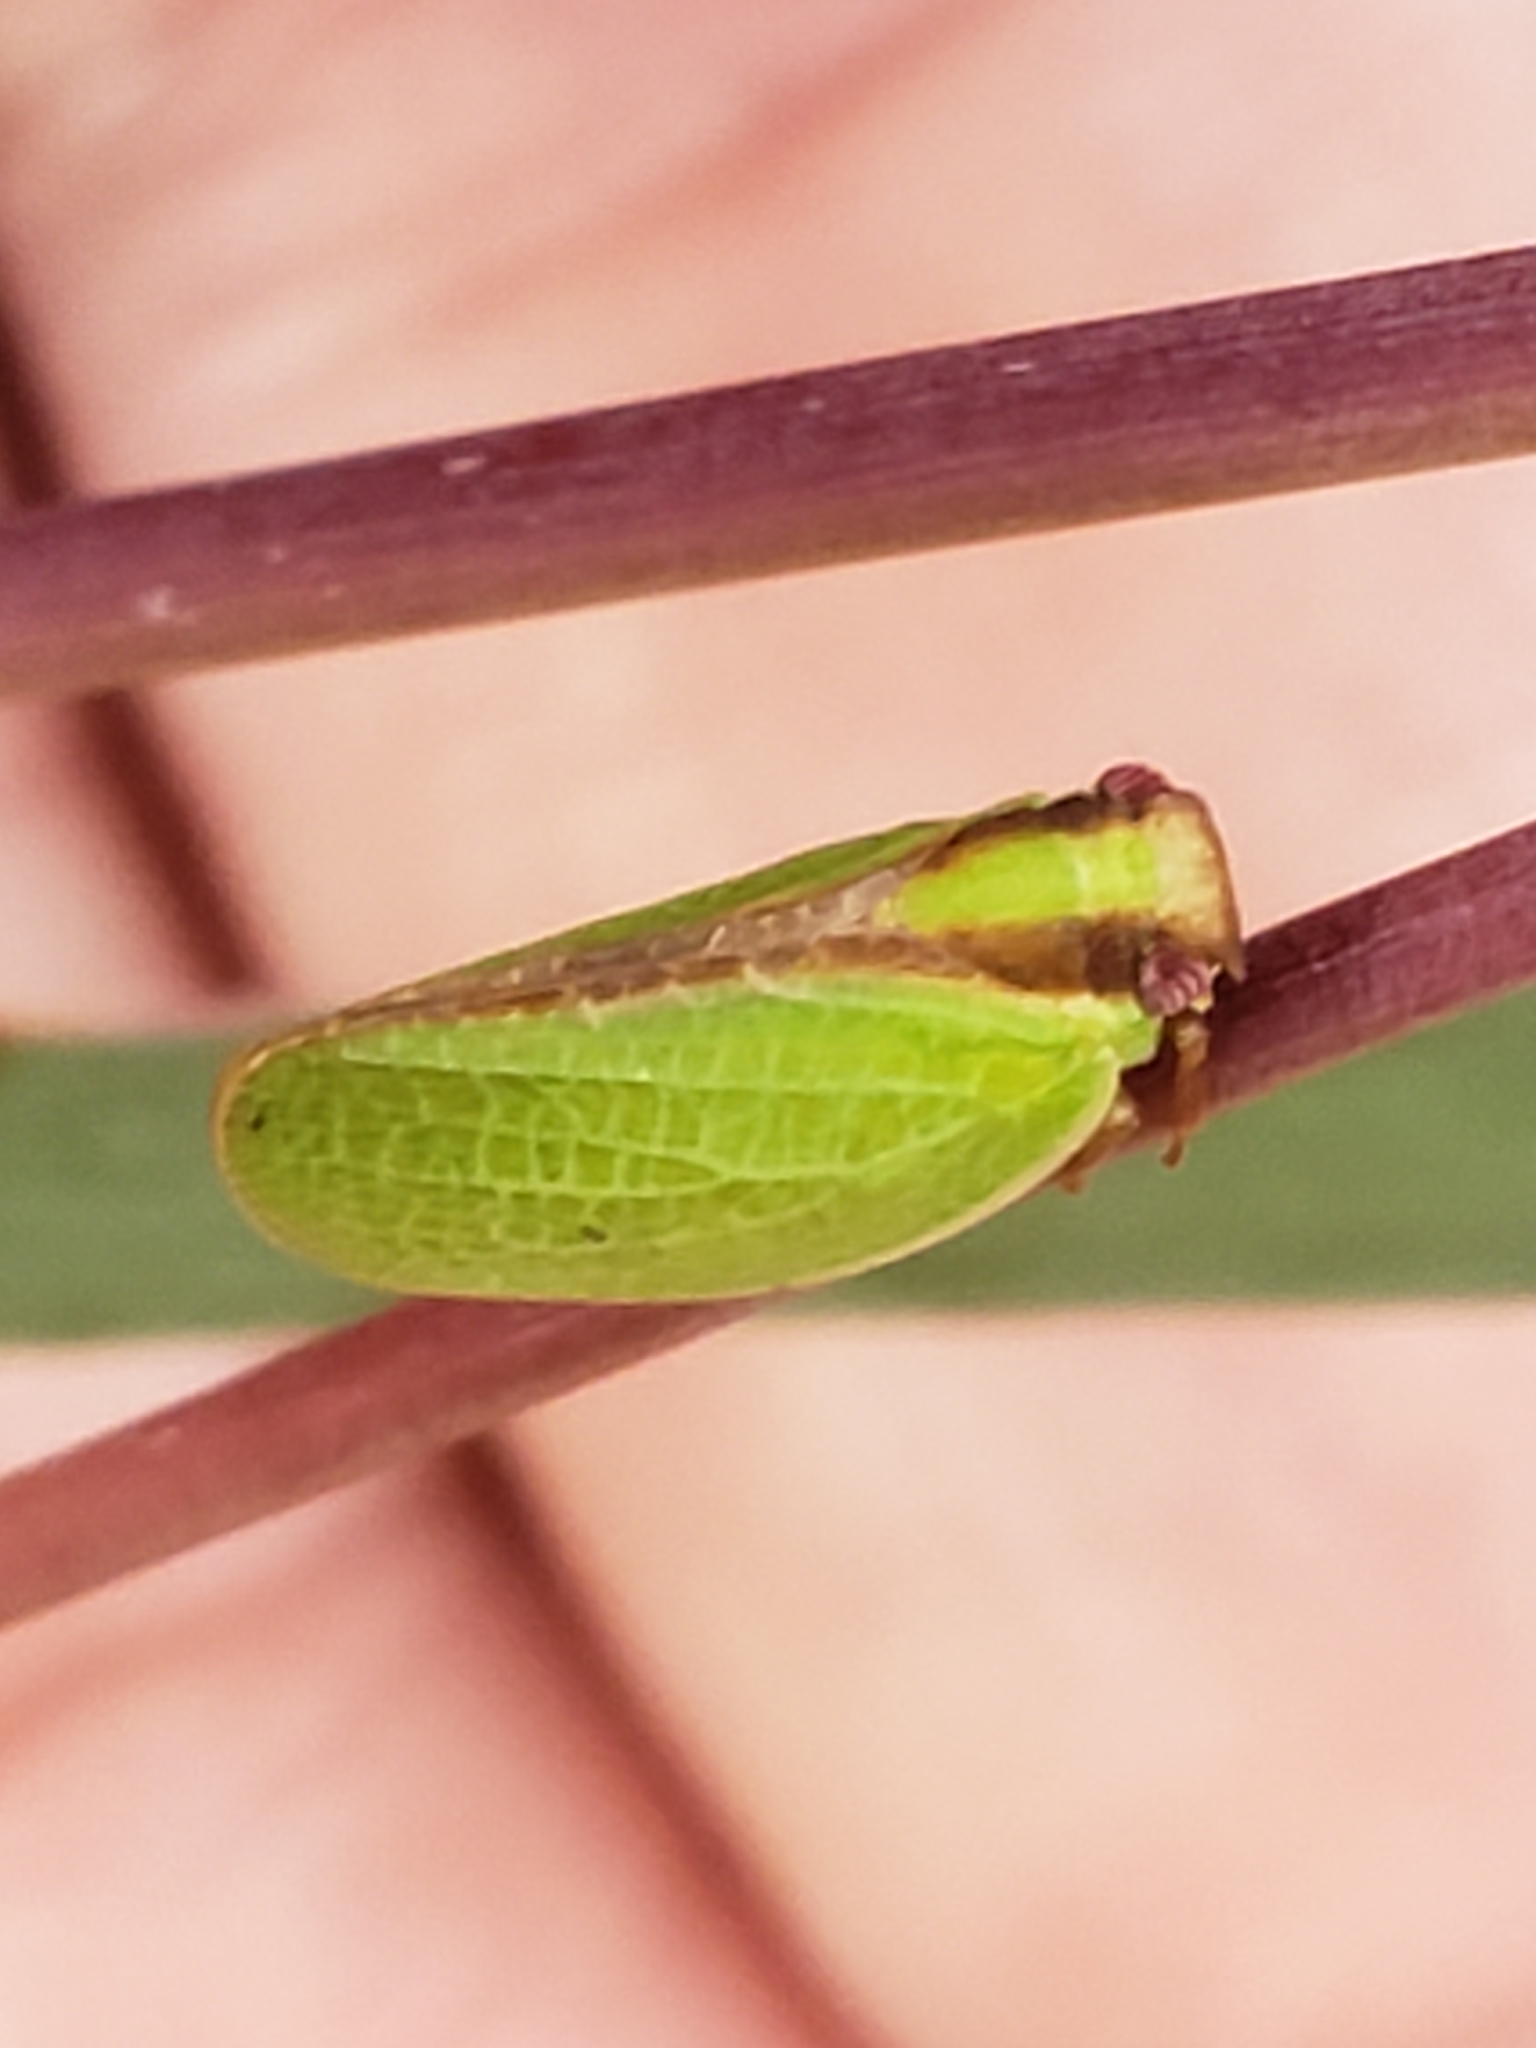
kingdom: Animalia
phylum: Arthropoda
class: Insecta
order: Hemiptera
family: Acanaloniidae
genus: Acanalonia
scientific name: Acanalonia bivittata
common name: Two-striped planthopper
